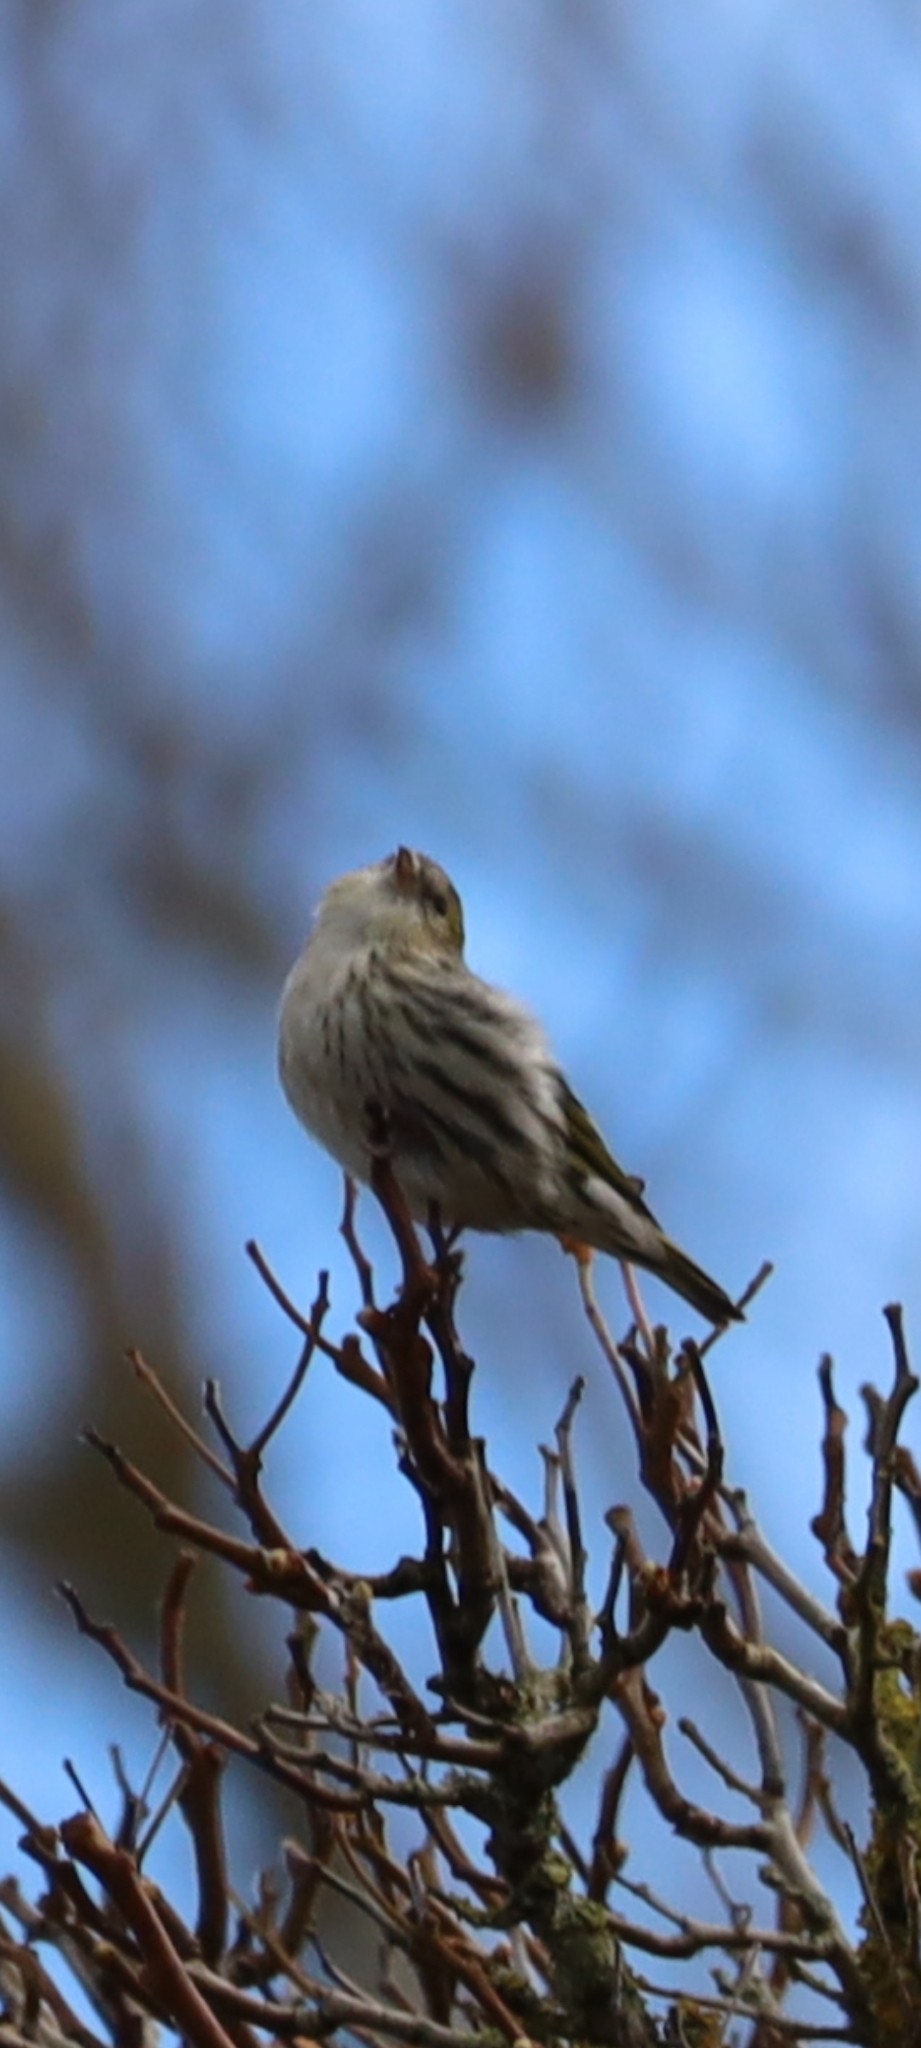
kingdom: Animalia
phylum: Chordata
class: Aves
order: Passeriformes
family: Fringillidae
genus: Spinus
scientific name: Spinus spinus
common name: Eurasian siskin
